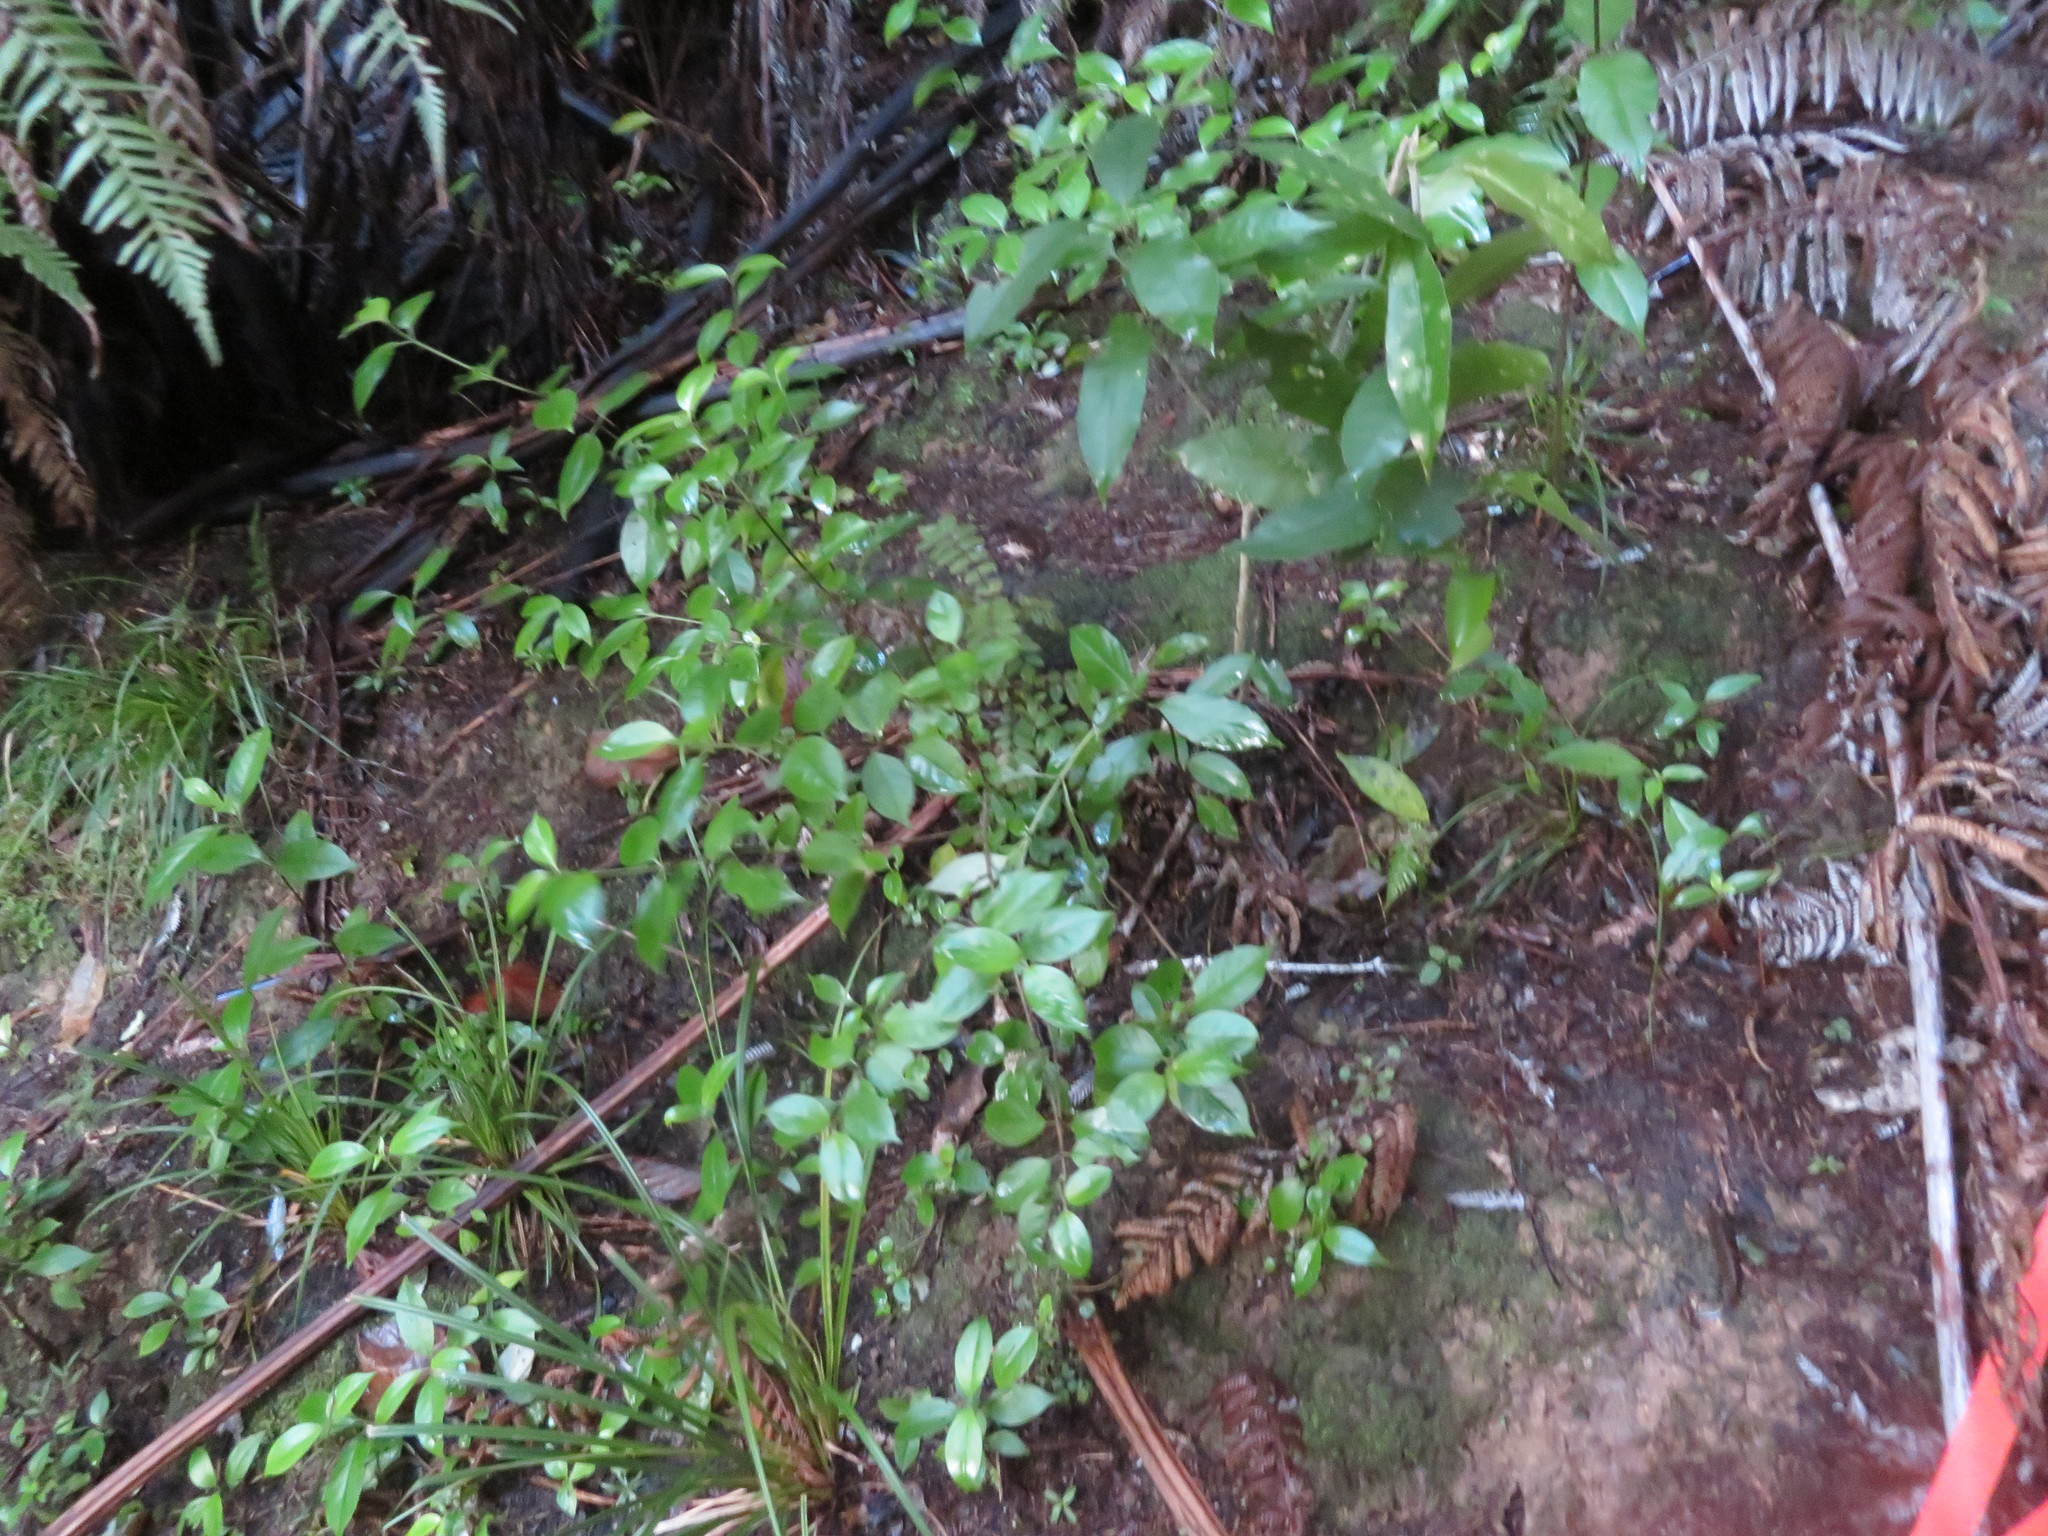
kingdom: Plantae
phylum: Tracheophyta
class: Magnoliopsida
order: Oxalidales
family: Cunoniaceae
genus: Pterophylla
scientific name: Pterophylla sylvicola
